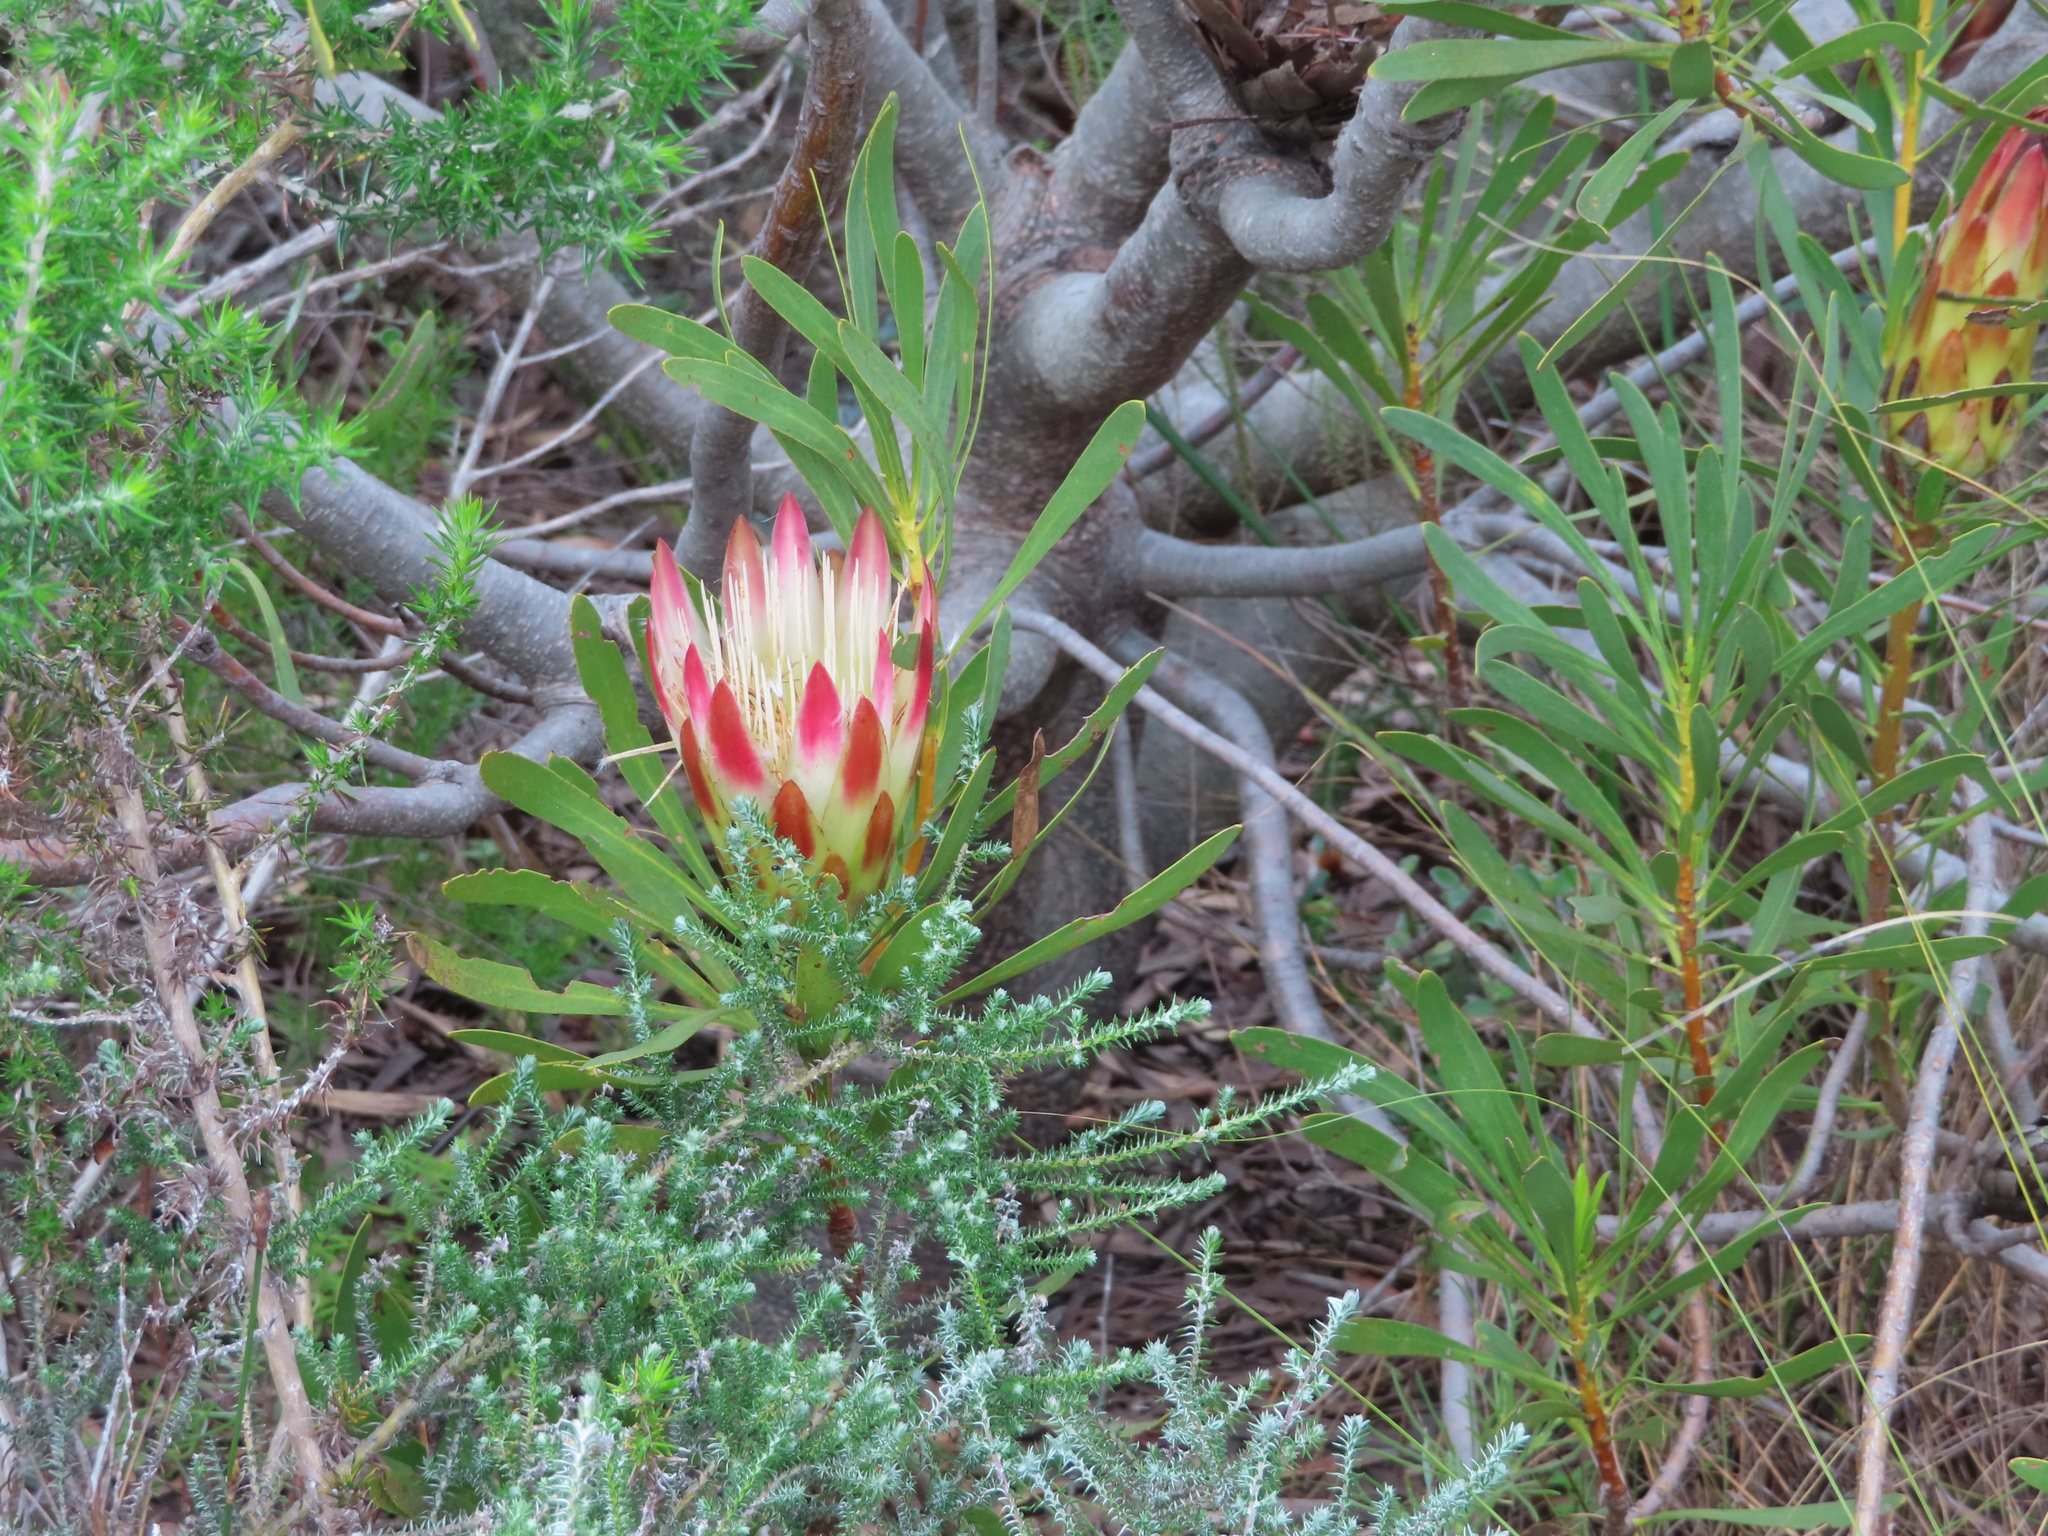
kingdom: Plantae
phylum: Tracheophyta
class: Magnoliopsida
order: Proteales
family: Proteaceae
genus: Protea
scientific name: Protea repens
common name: Sugarbush
